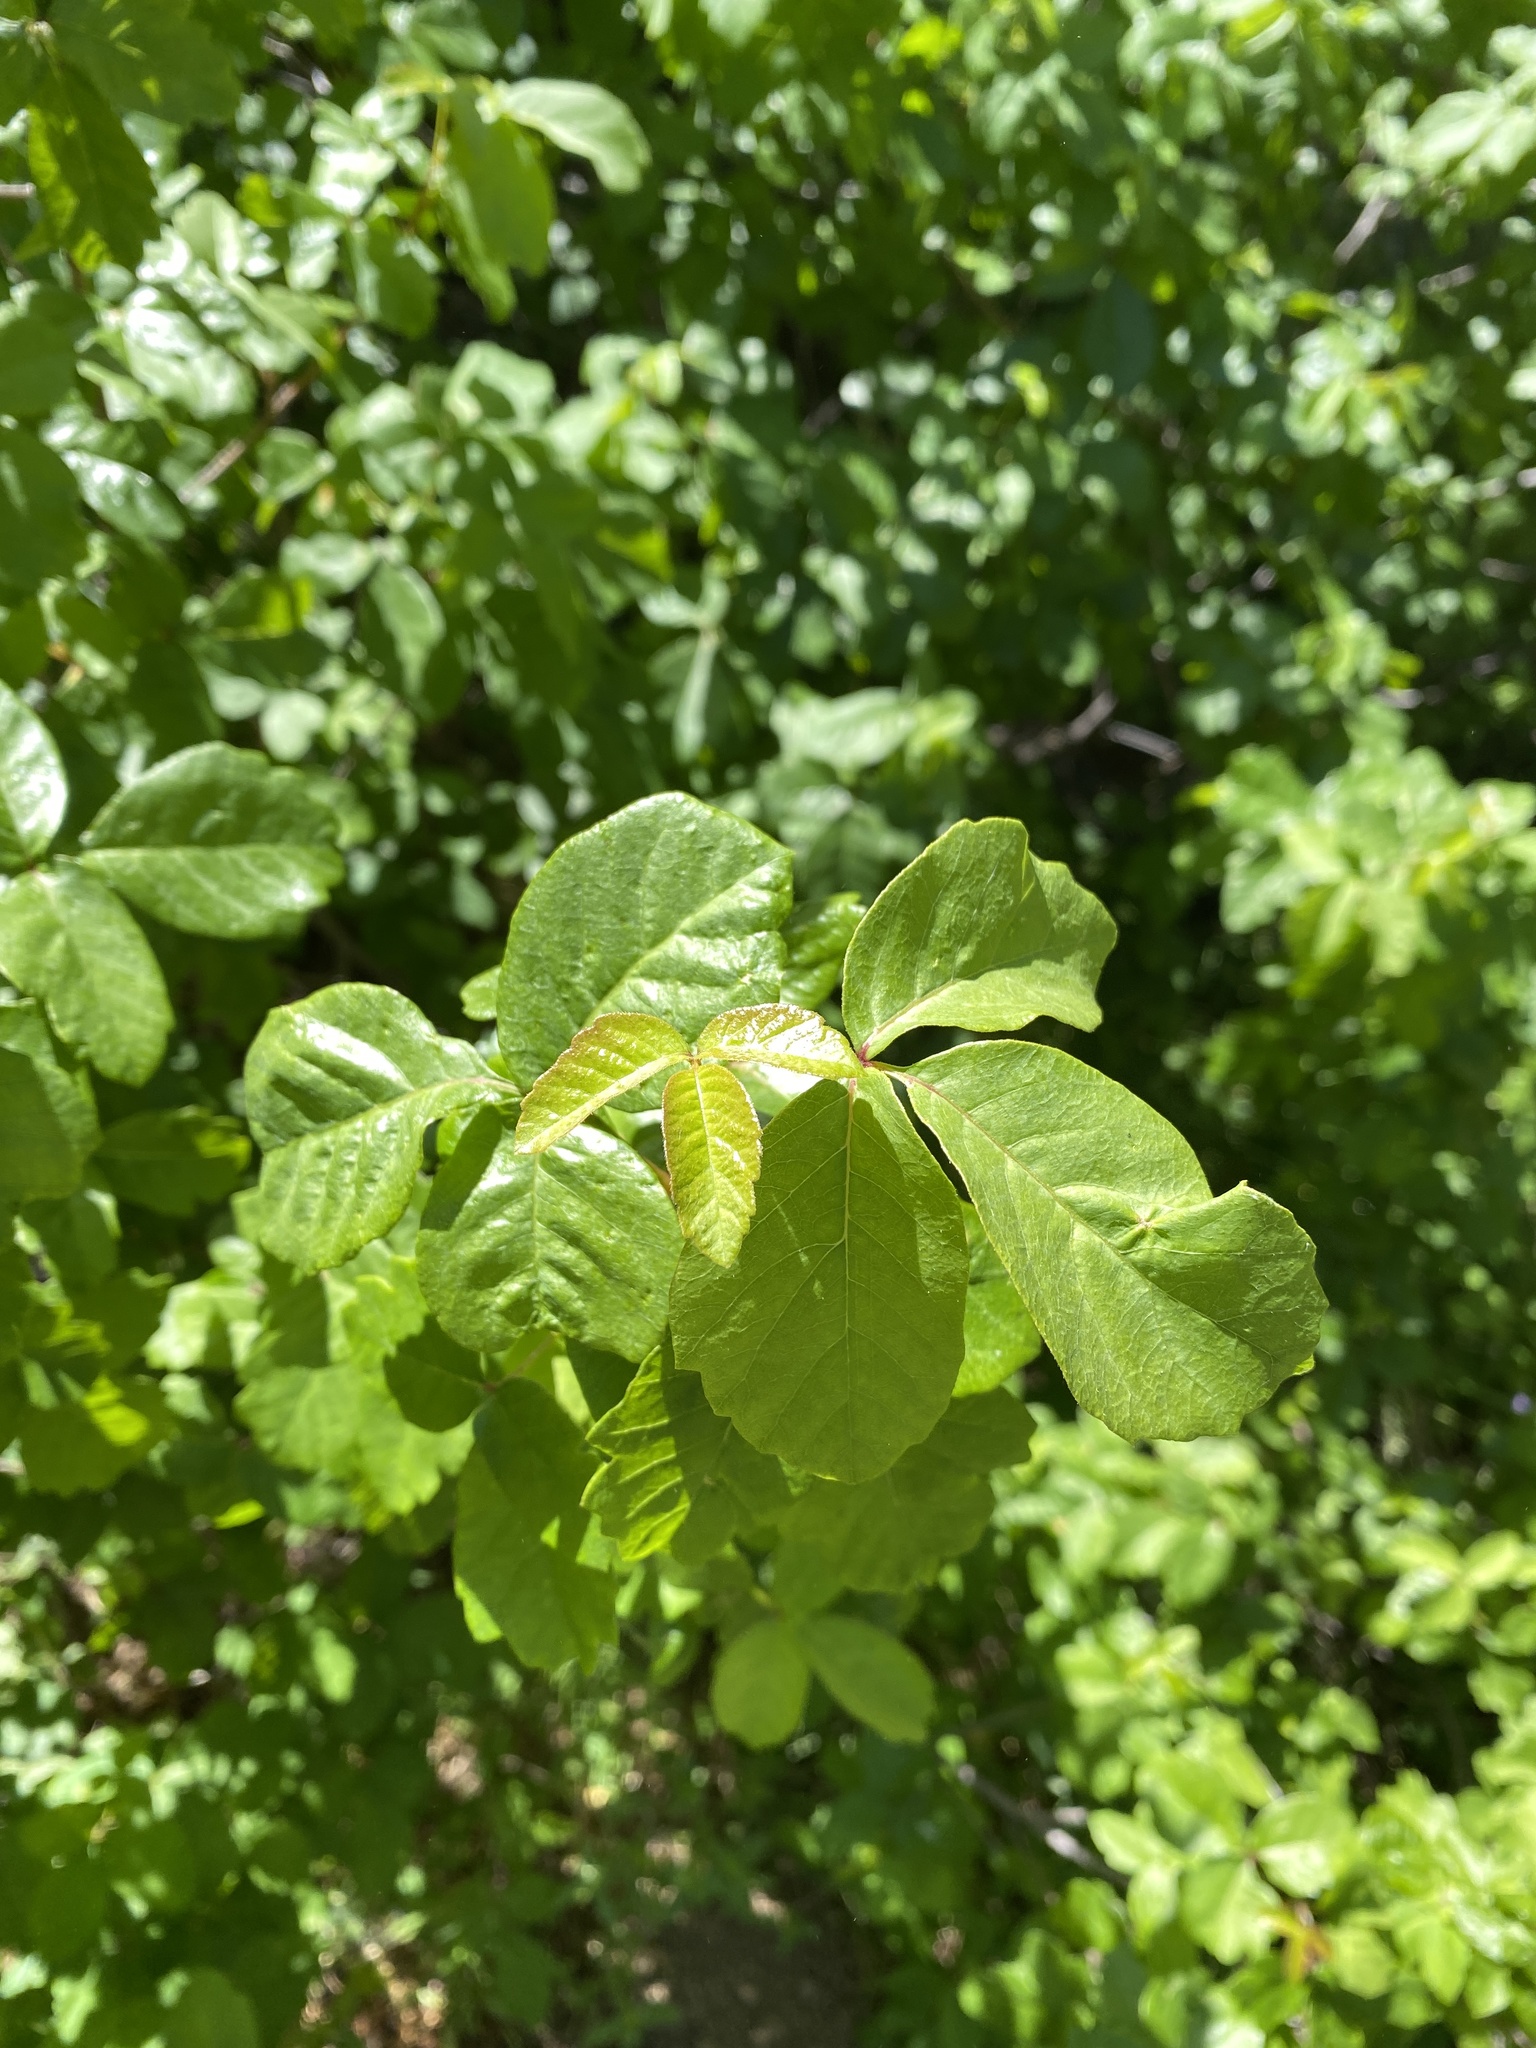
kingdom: Plantae
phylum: Tracheophyta
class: Magnoliopsida
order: Sapindales
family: Anacardiaceae
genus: Toxicodendron
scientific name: Toxicodendron diversilobum
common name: Pacific poison-oak
